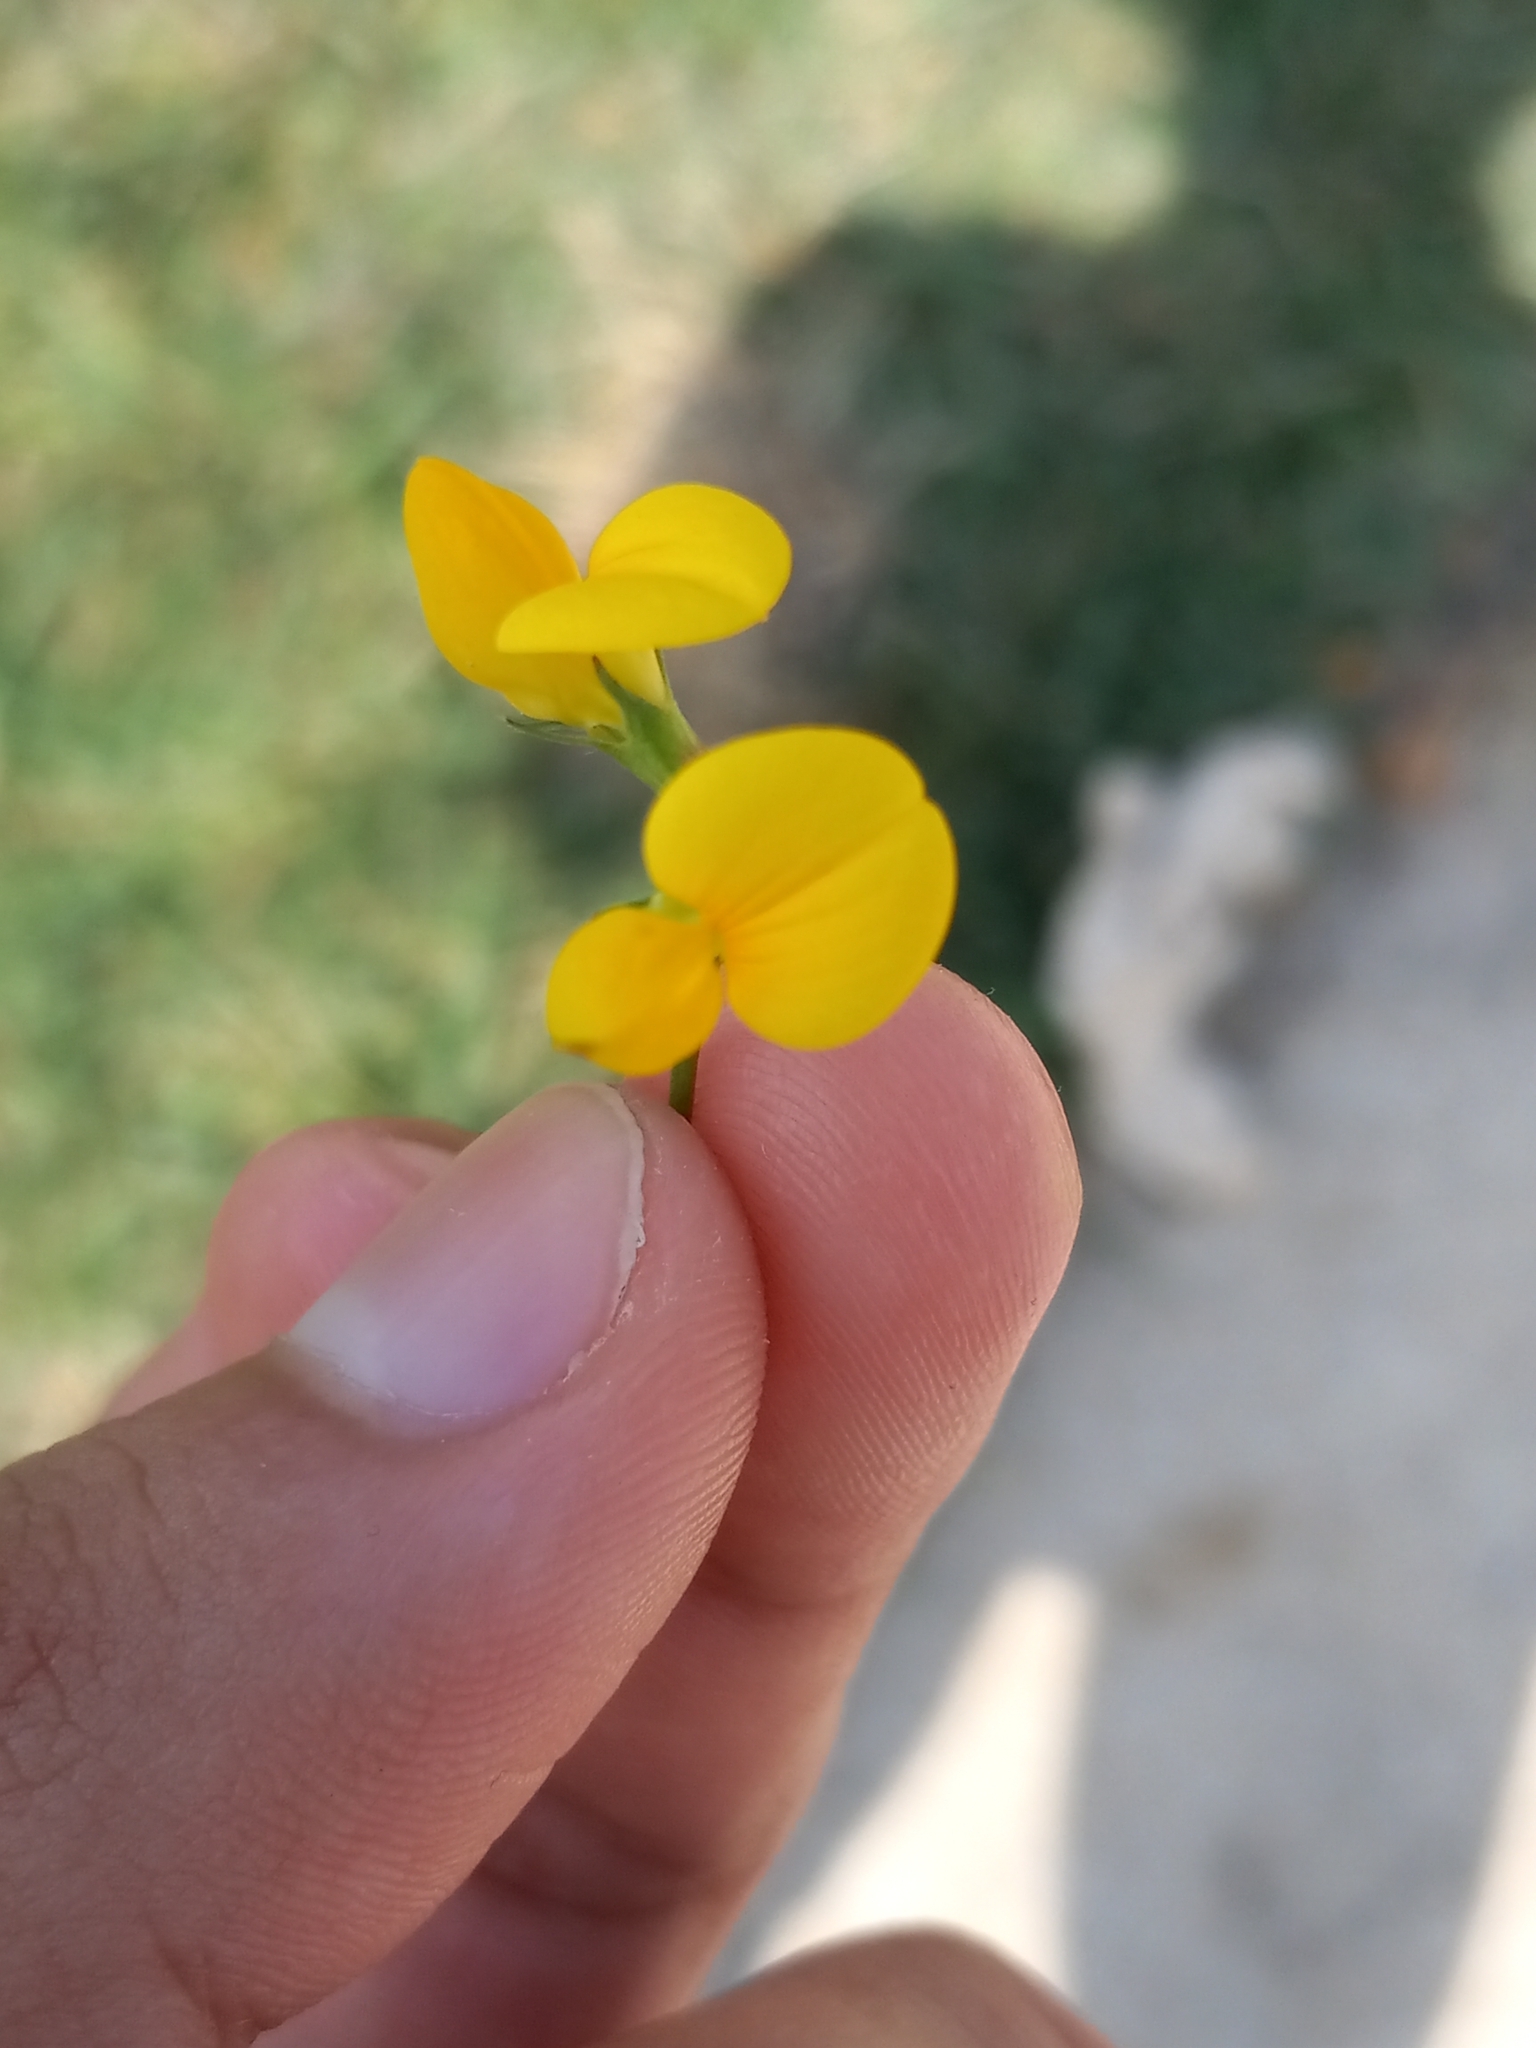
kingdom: Plantae
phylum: Tracheophyta
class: Magnoliopsida
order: Fabales
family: Fabaceae
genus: Lotus
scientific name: Lotus corniculatus
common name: Common bird's-foot-trefoil
